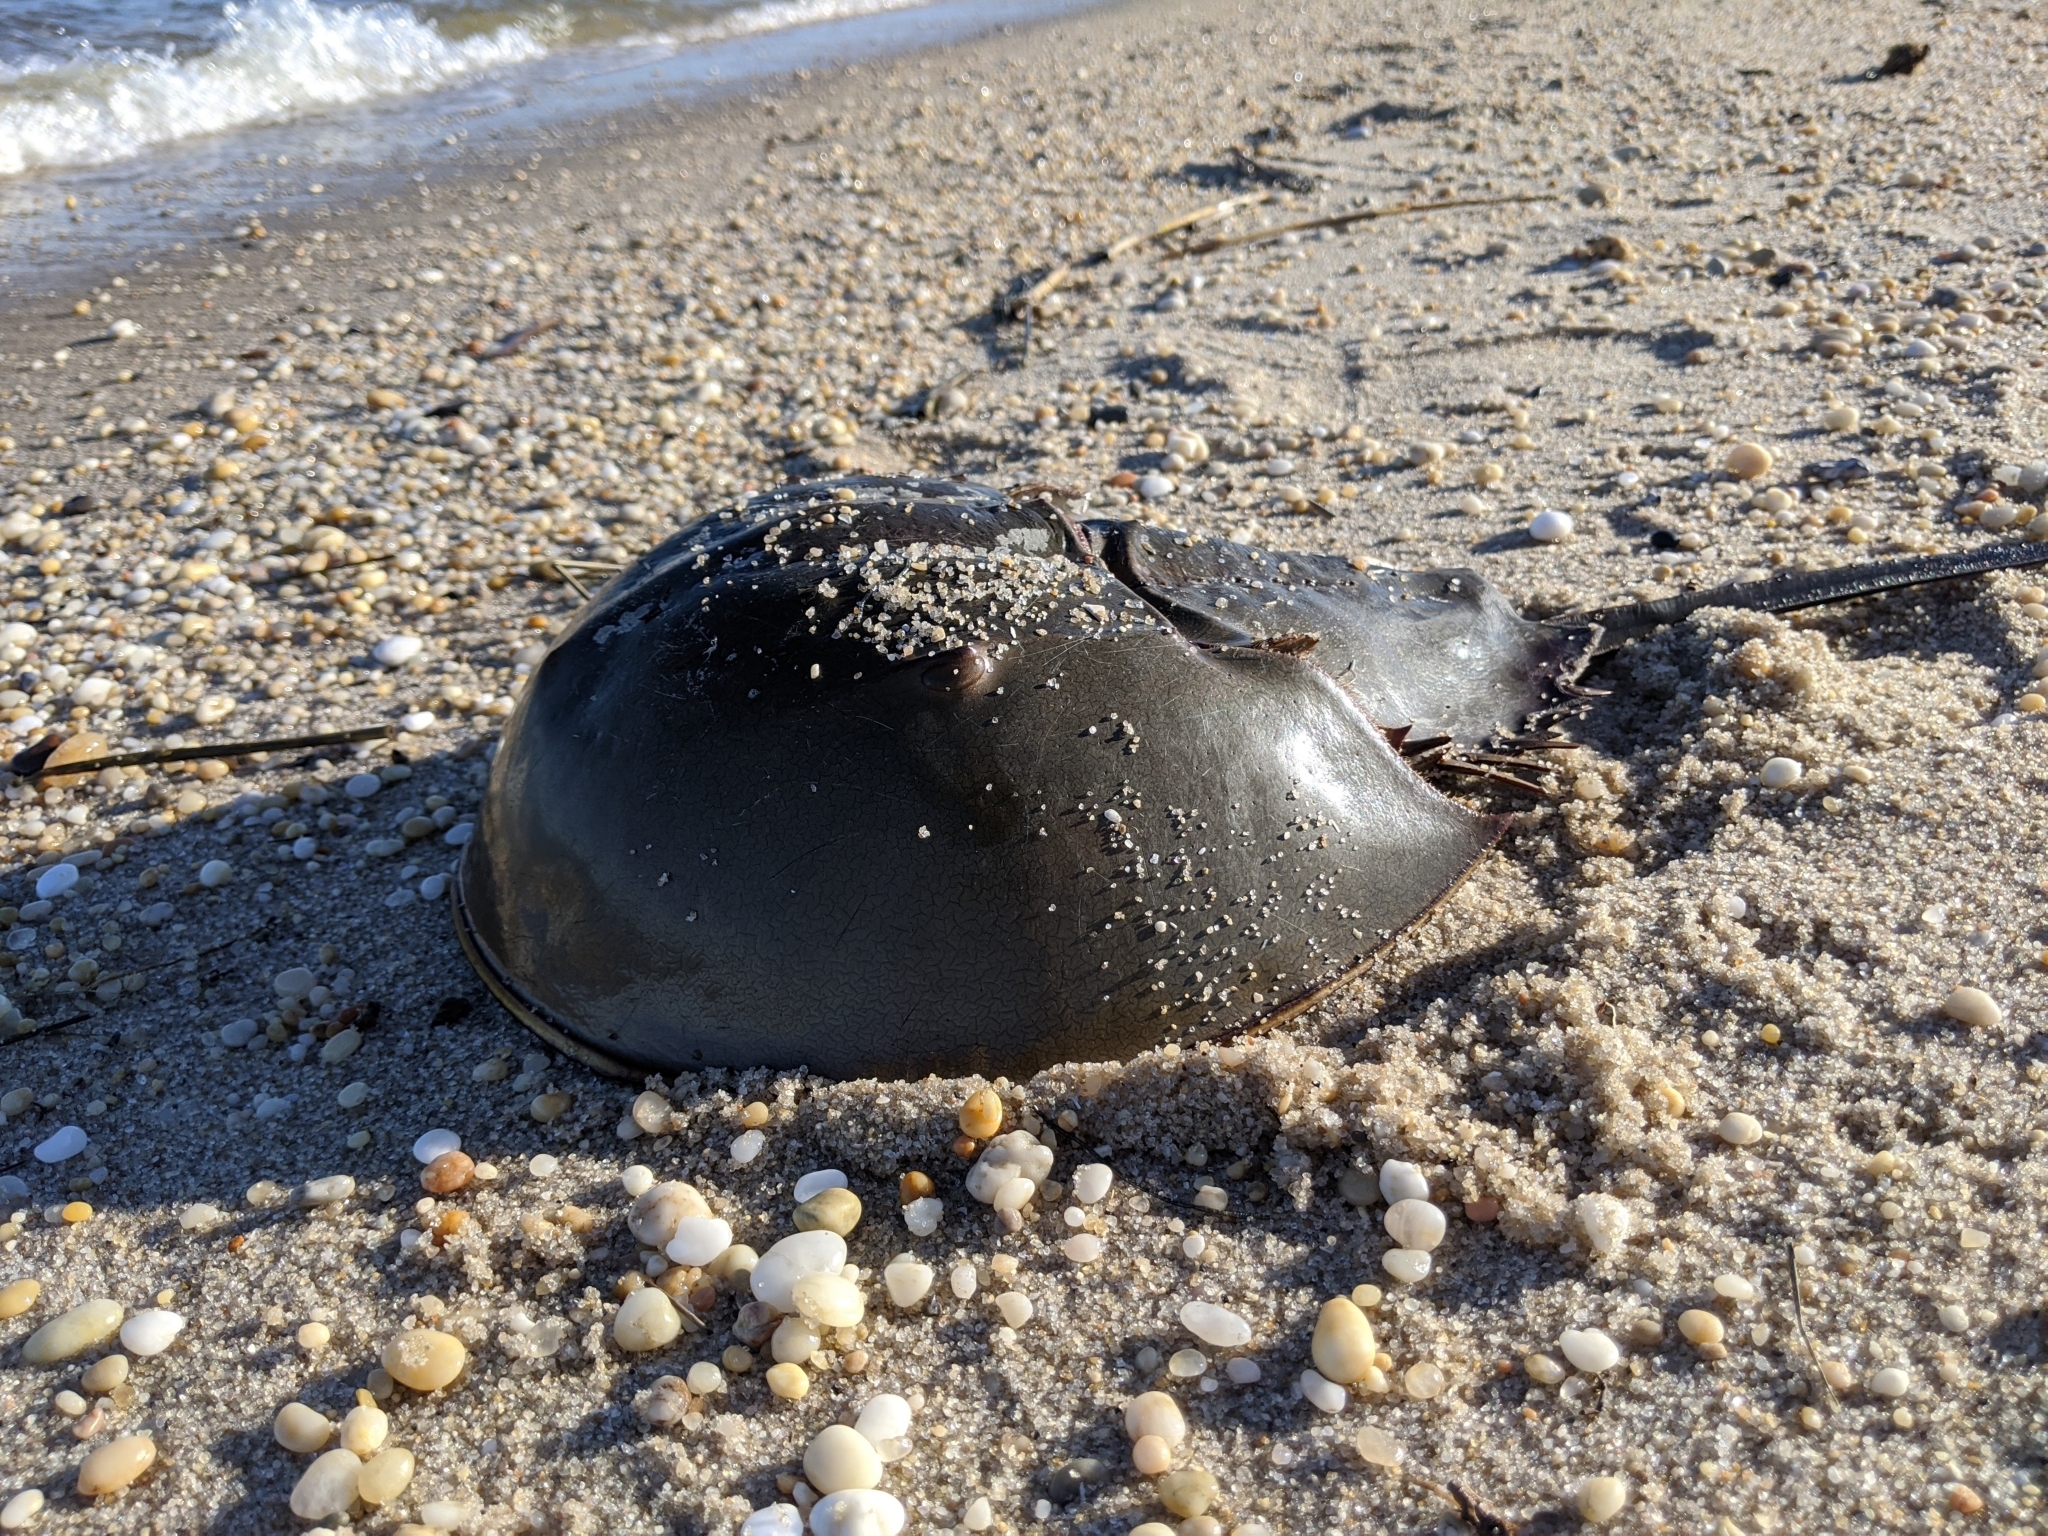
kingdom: Animalia
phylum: Arthropoda
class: Merostomata
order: Xiphosurida
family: Limulidae
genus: Limulus
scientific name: Limulus polyphemus
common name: Horseshoe crab
